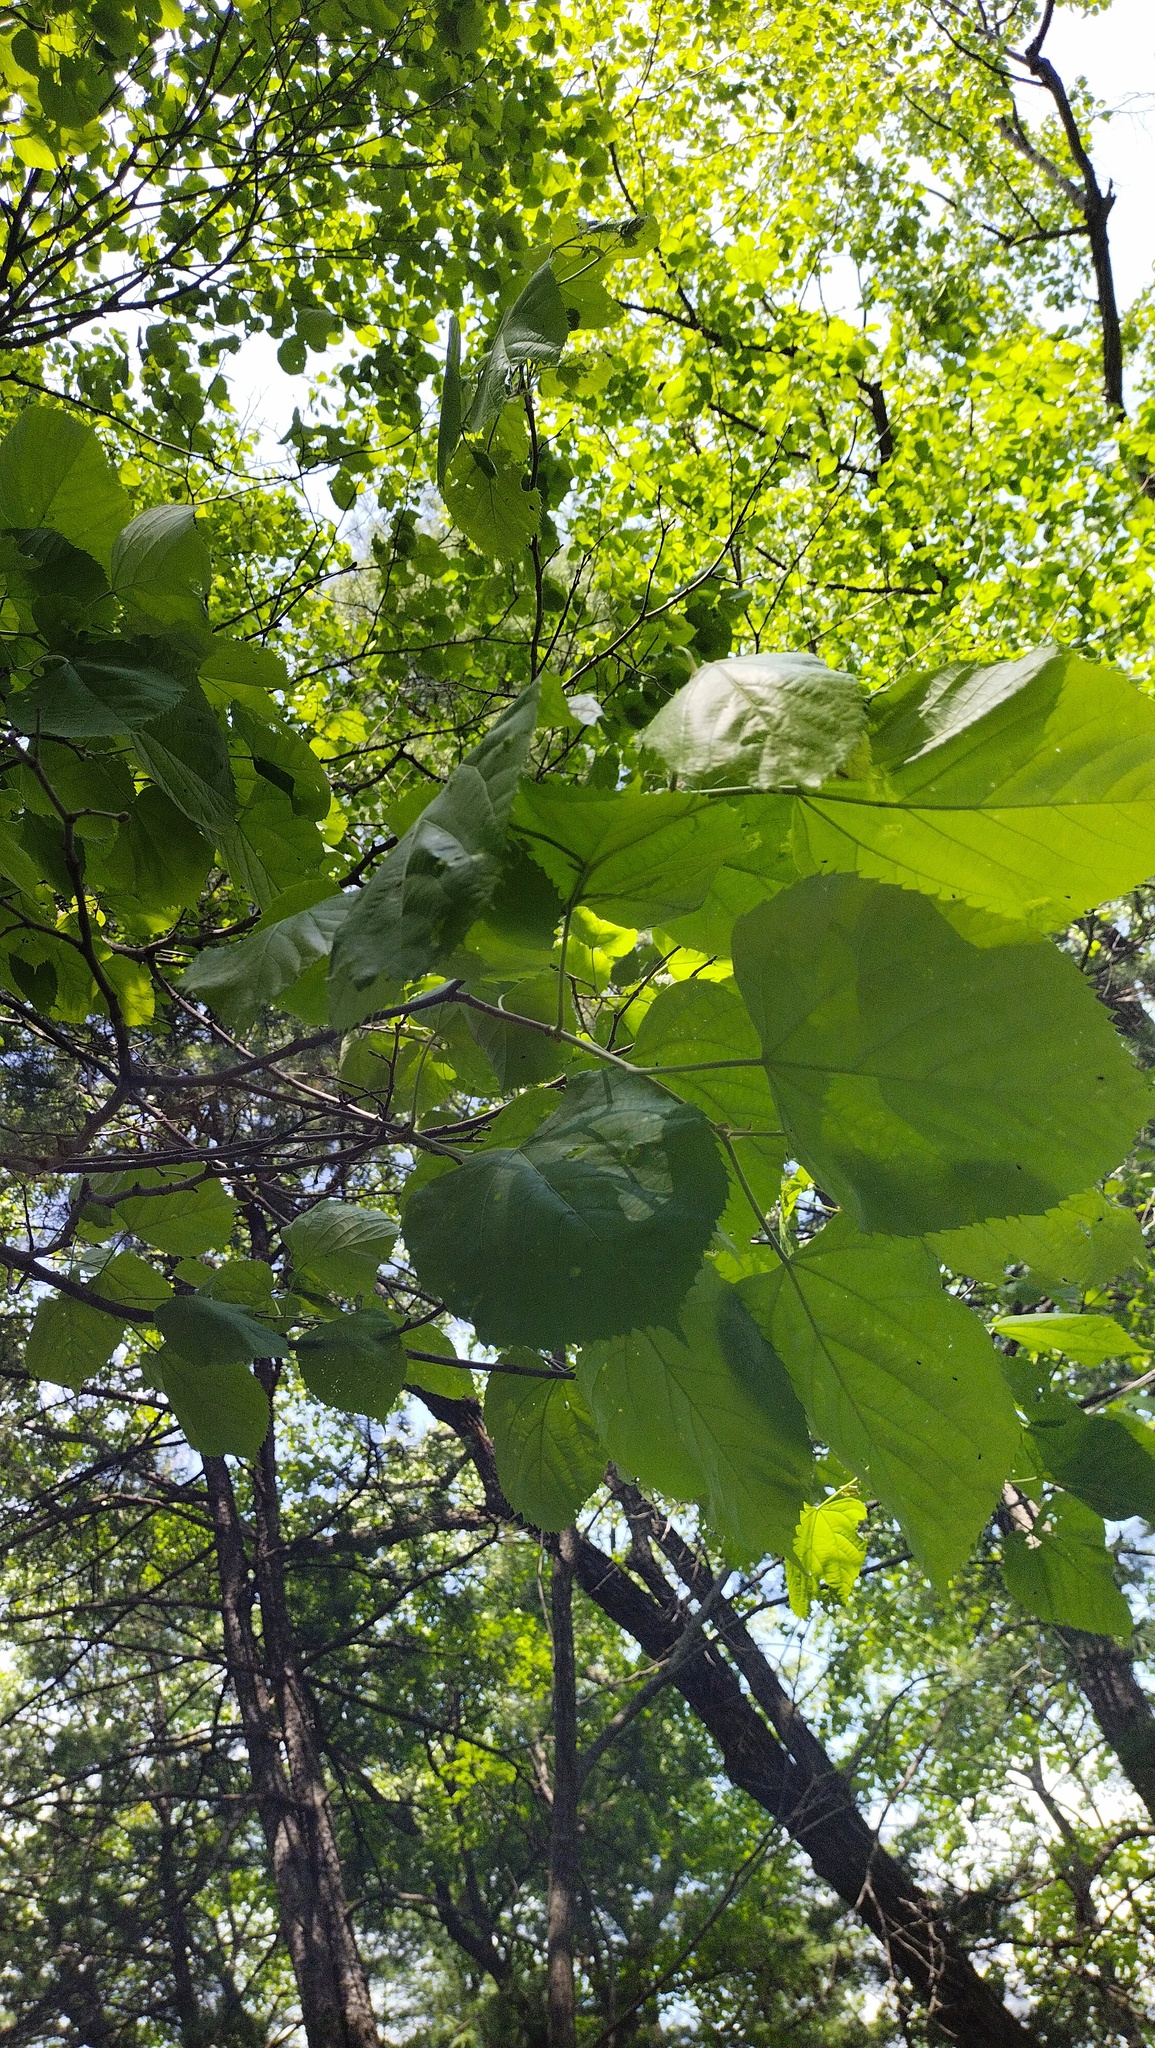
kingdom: Plantae
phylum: Tracheophyta
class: Magnoliopsida
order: Malvales
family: Malvaceae
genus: Tilia
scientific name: Tilia mandshurica
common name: Manchurian linden
